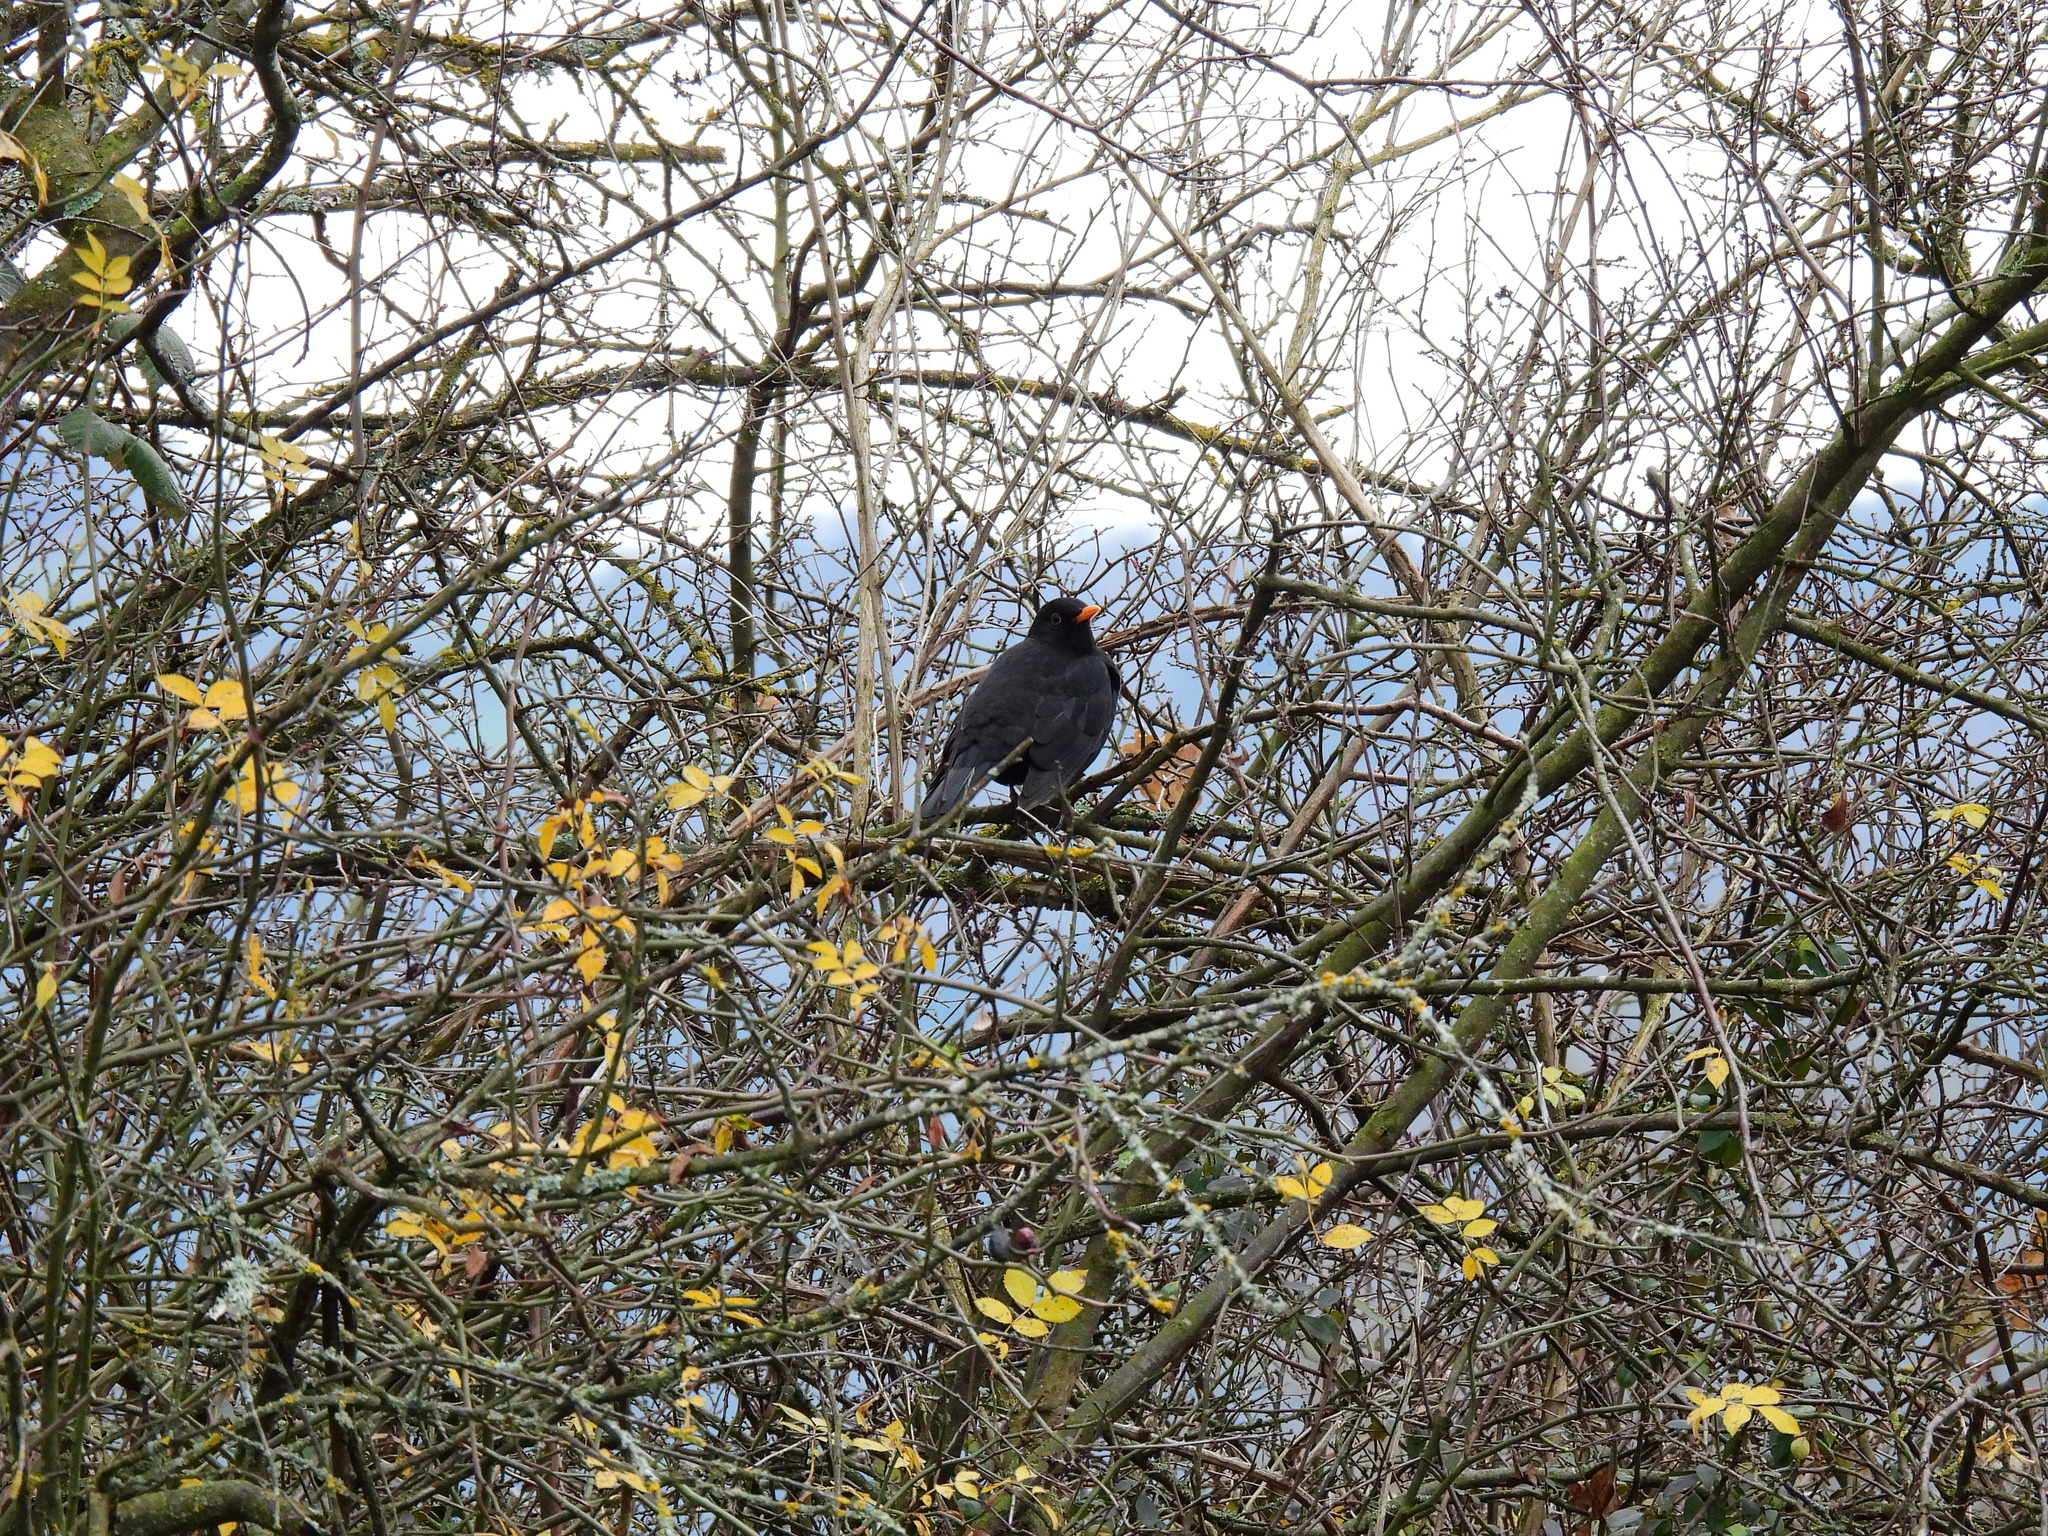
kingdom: Animalia
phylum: Chordata
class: Aves
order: Passeriformes
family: Turdidae
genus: Turdus
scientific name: Turdus merula
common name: Common blackbird
